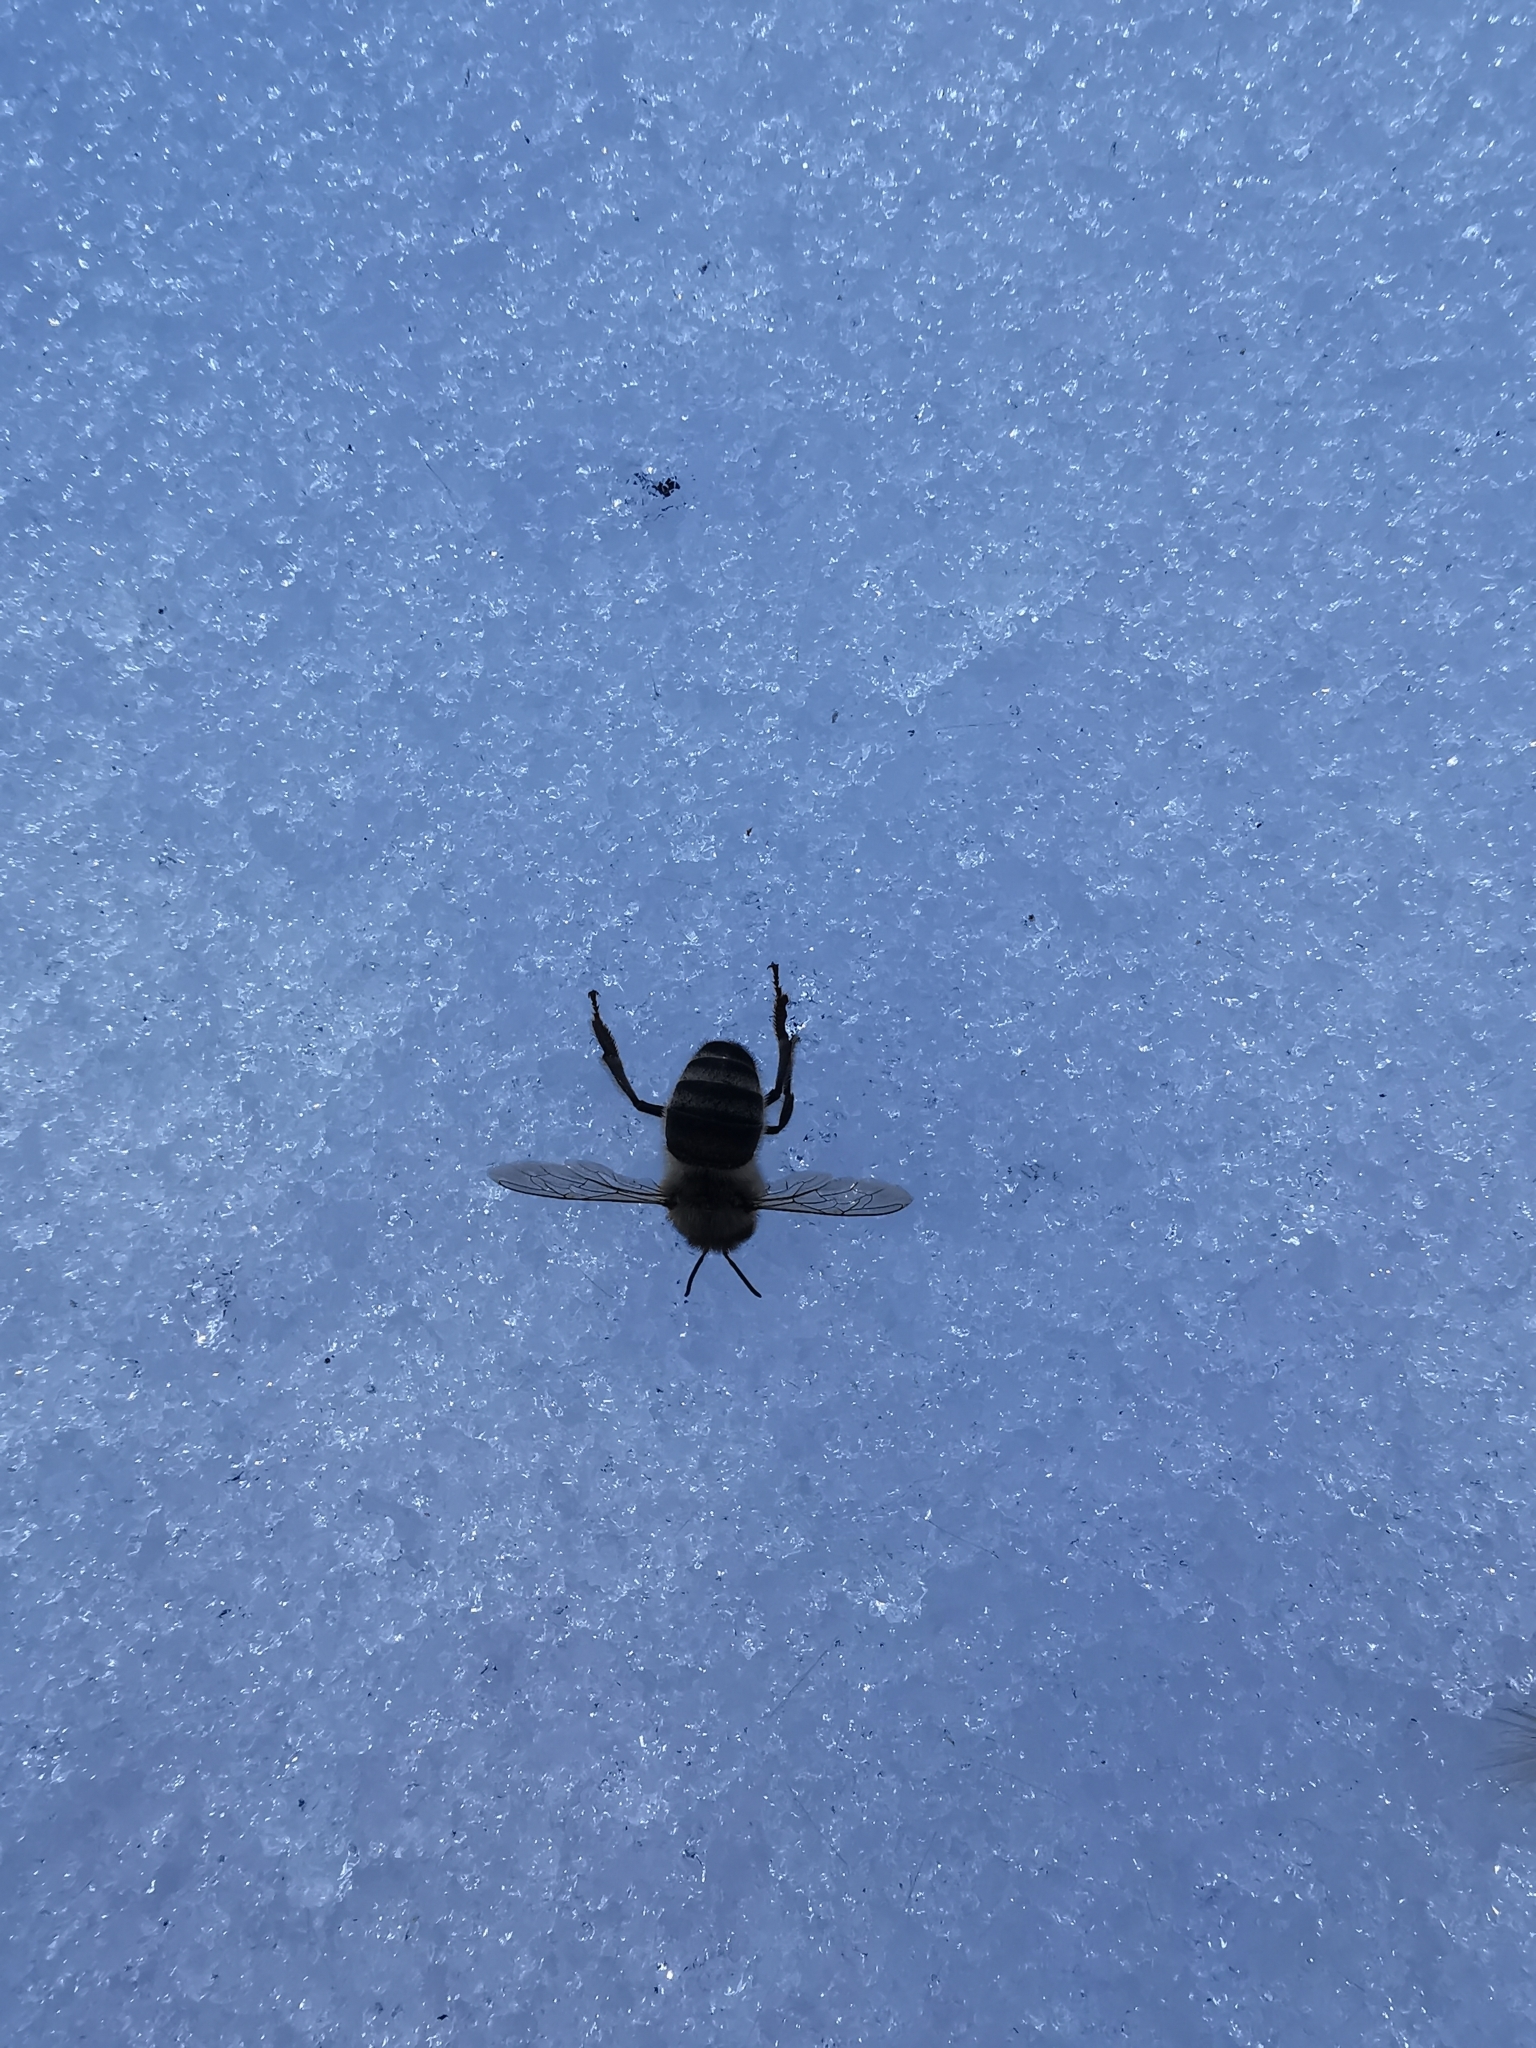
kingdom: Animalia
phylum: Arthropoda
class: Insecta
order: Hymenoptera
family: Apidae
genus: Apis
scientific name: Apis mellifera
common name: Honey bee
